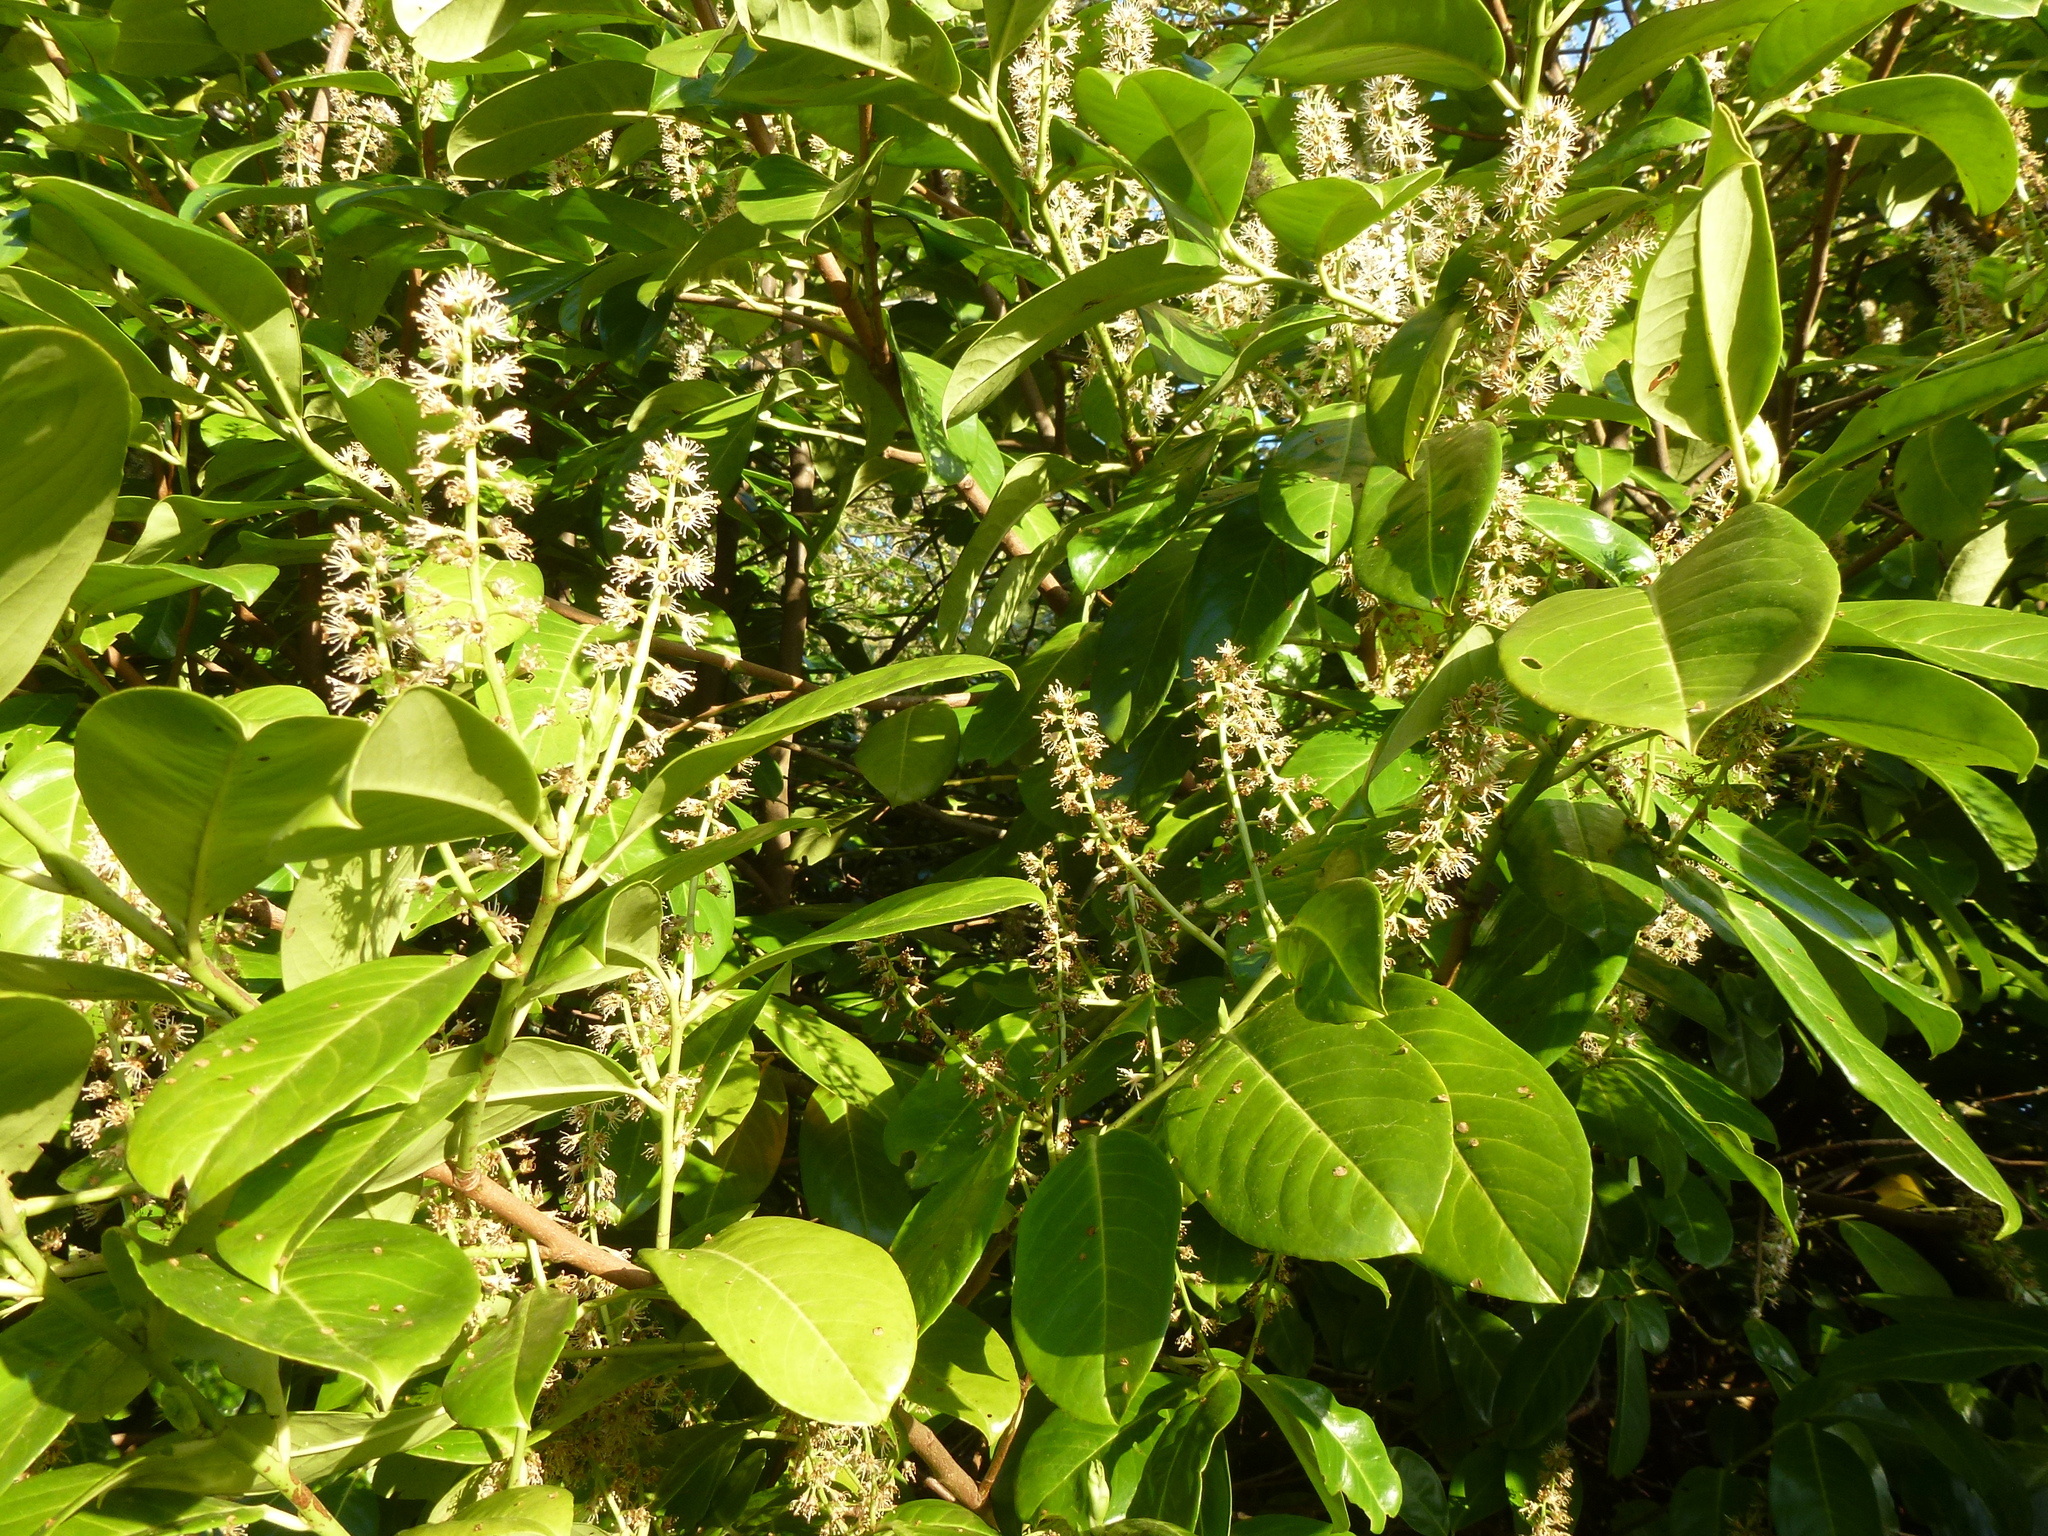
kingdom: Plantae
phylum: Tracheophyta
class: Magnoliopsida
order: Rosales
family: Rosaceae
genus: Prunus
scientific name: Prunus laurocerasus
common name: Cherry laurel
